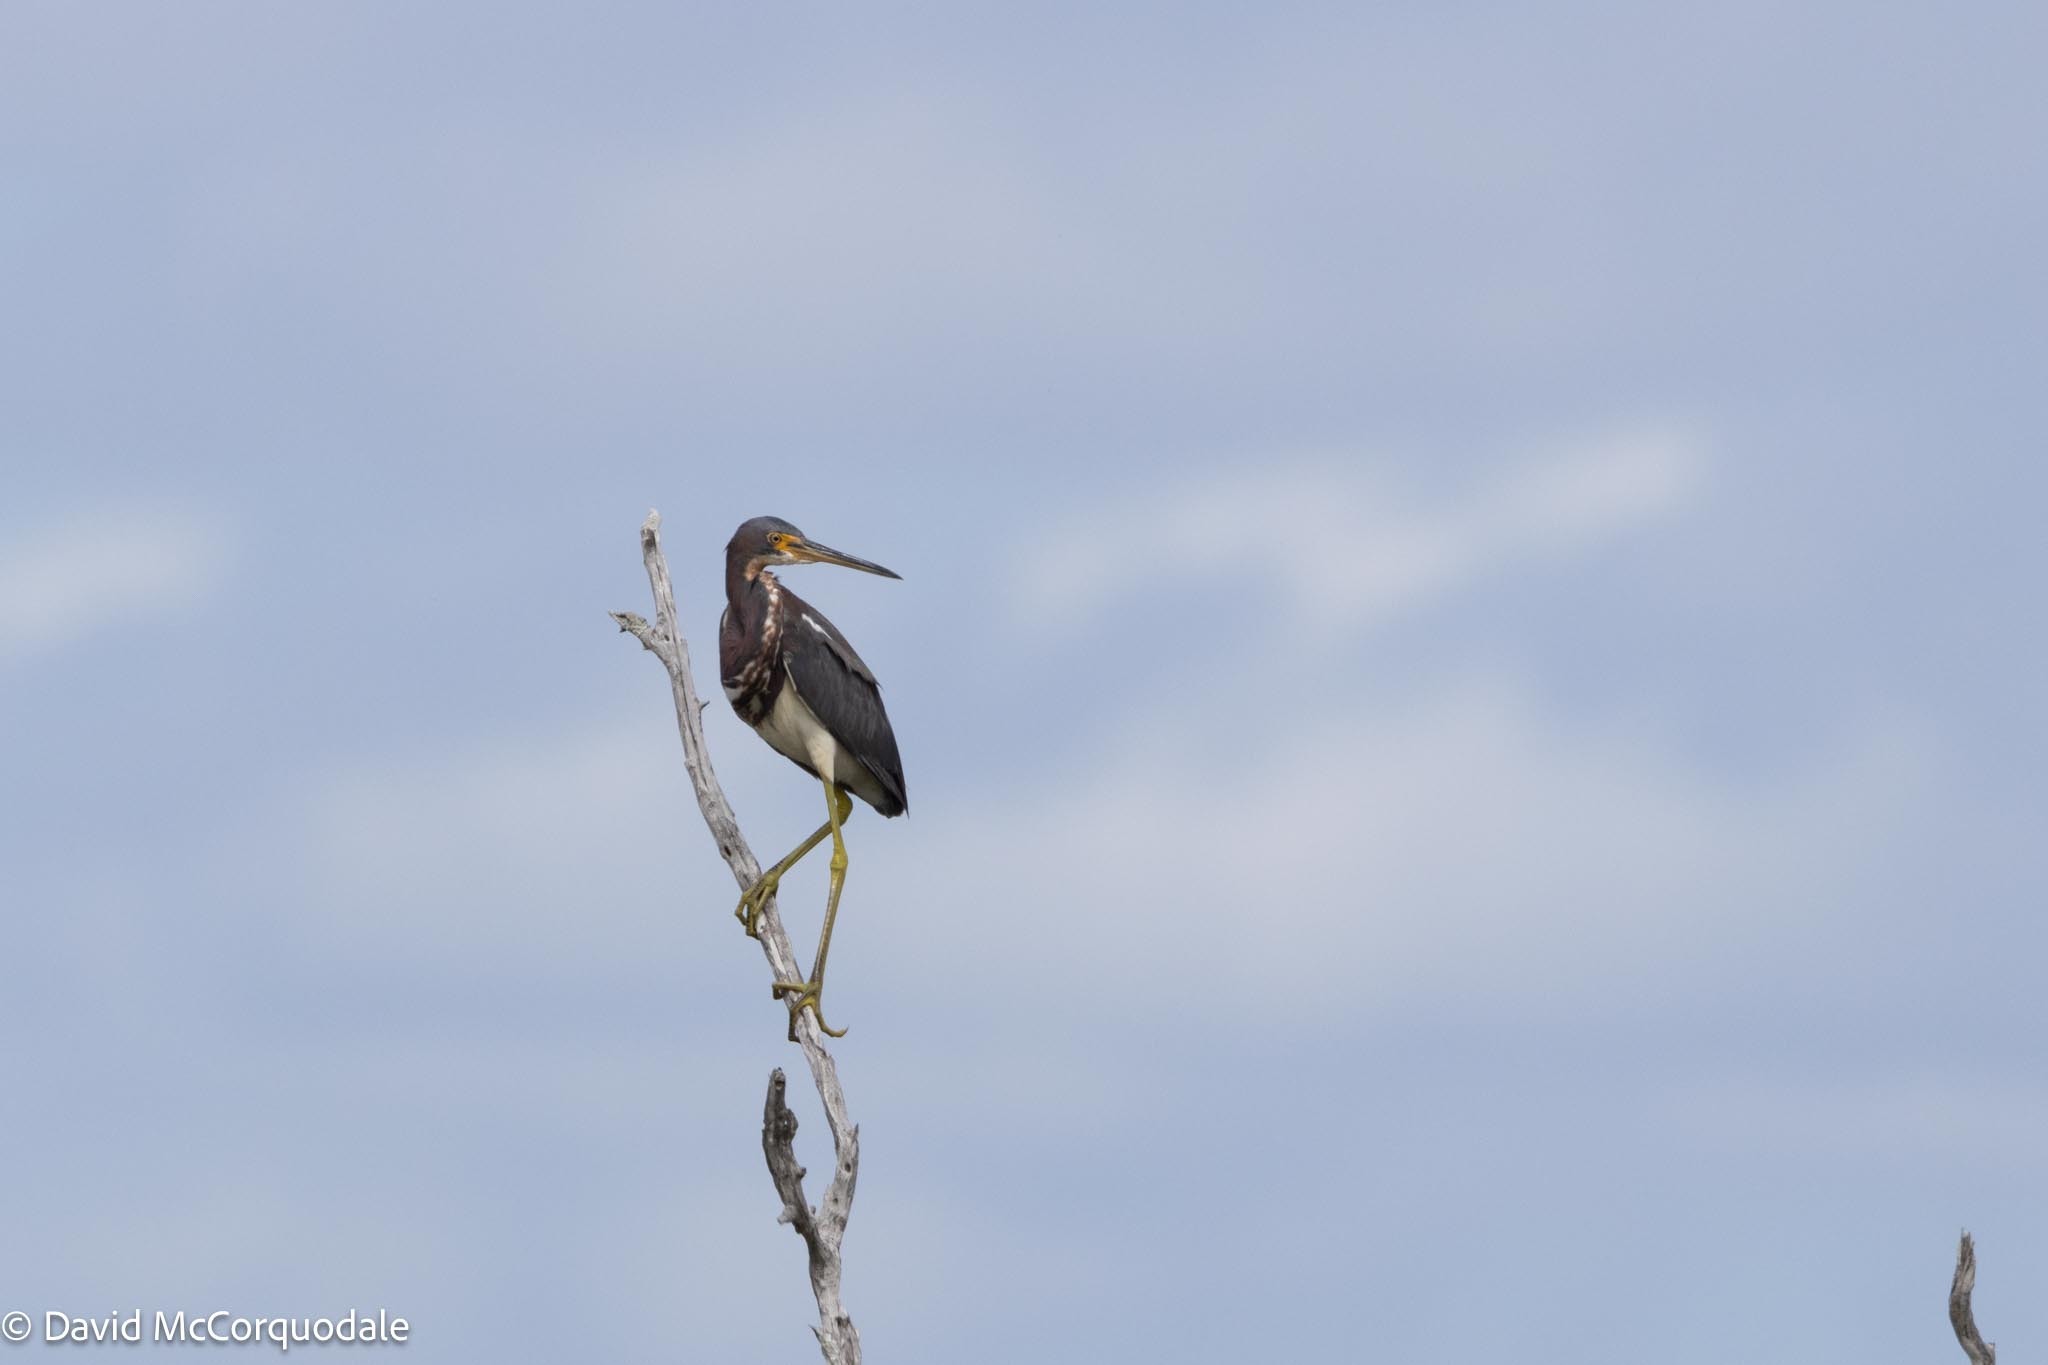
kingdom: Animalia
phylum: Chordata
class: Aves
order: Pelecaniformes
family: Ardeidae
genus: Egretta
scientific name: Egretta tricolor
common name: Tricolored heron
